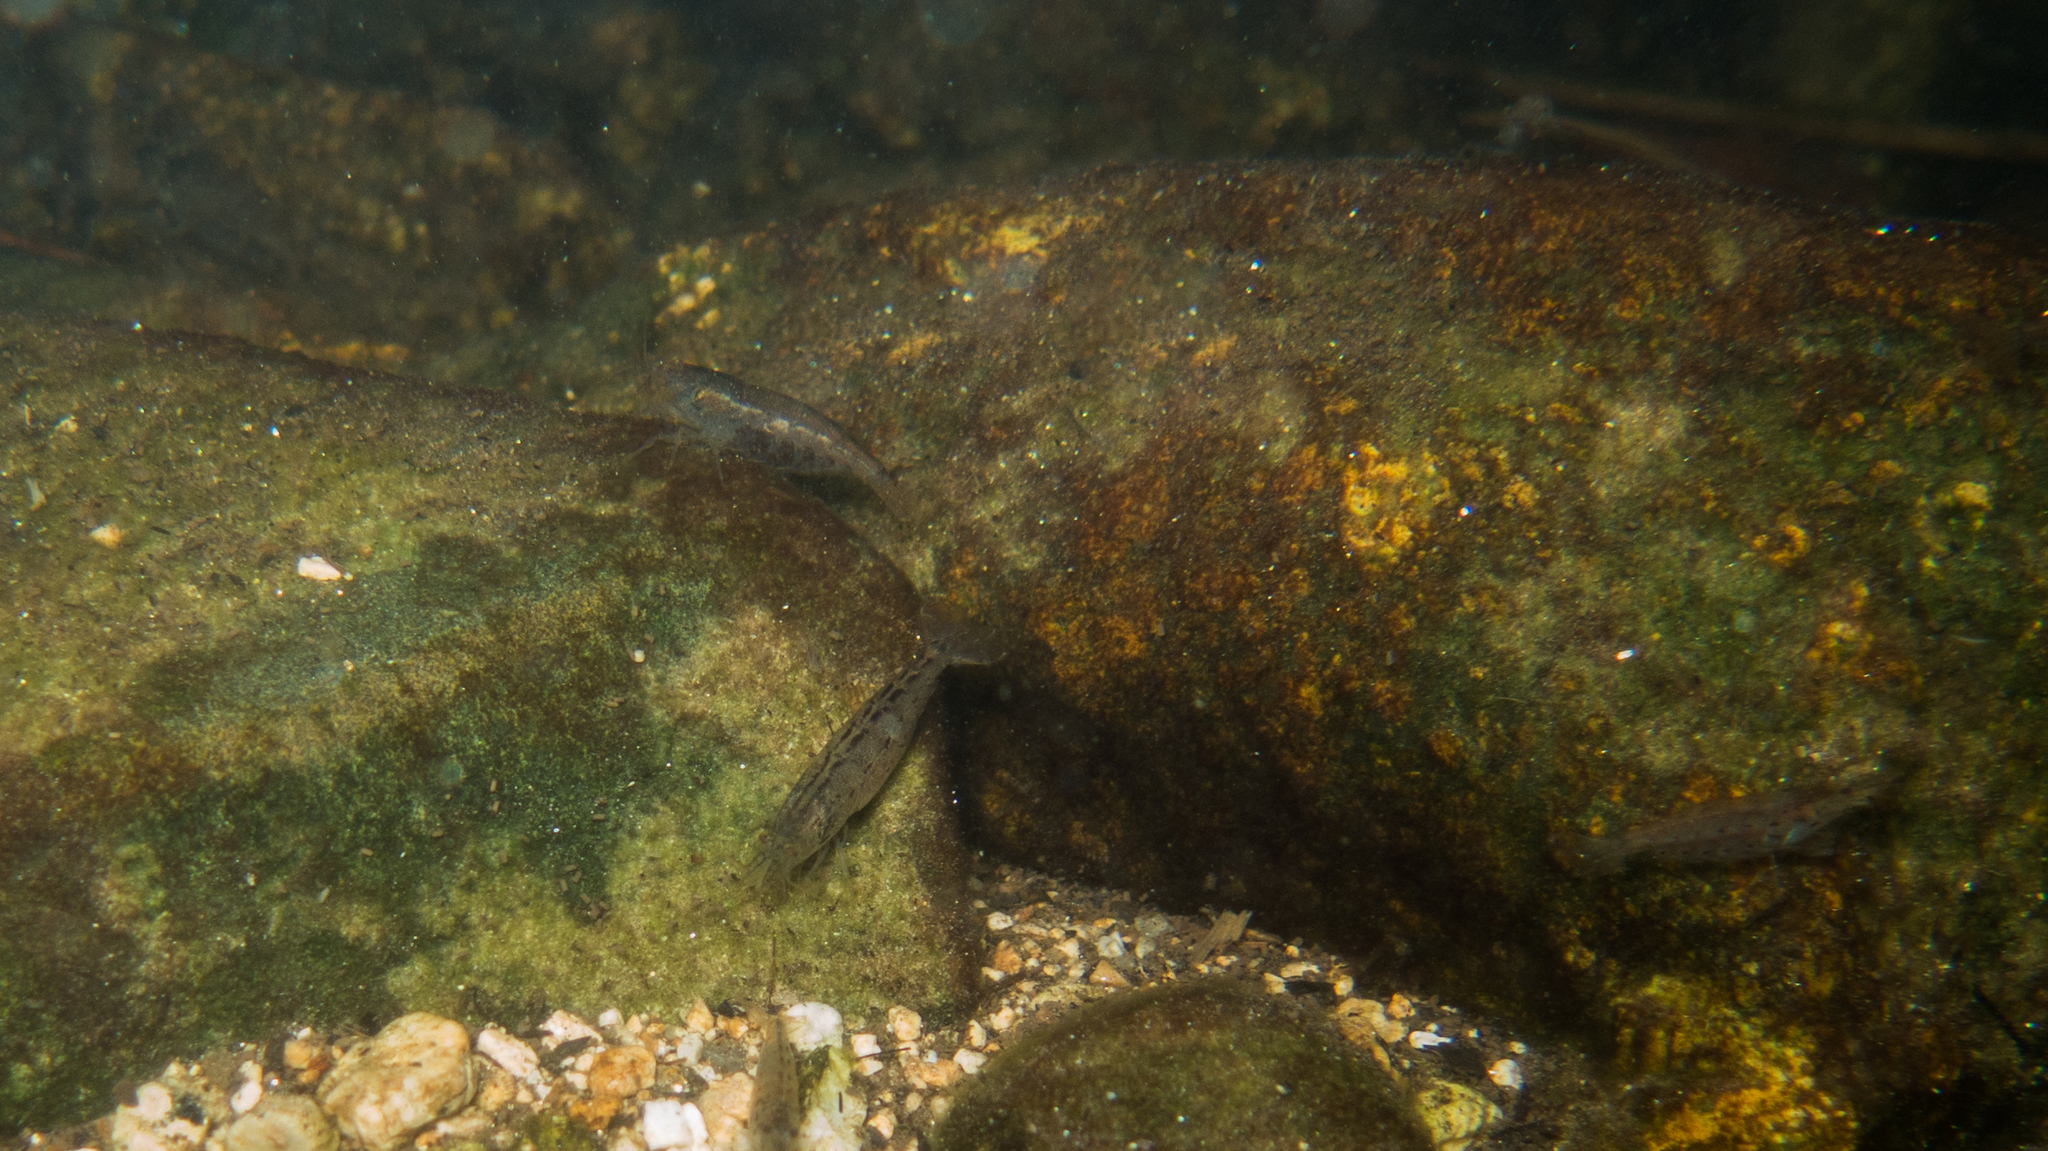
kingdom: Animalia
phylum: Arthropoda
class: Malacostraca
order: Decapoda
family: Atyidae
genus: Potimirim
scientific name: Potimirim glabra
